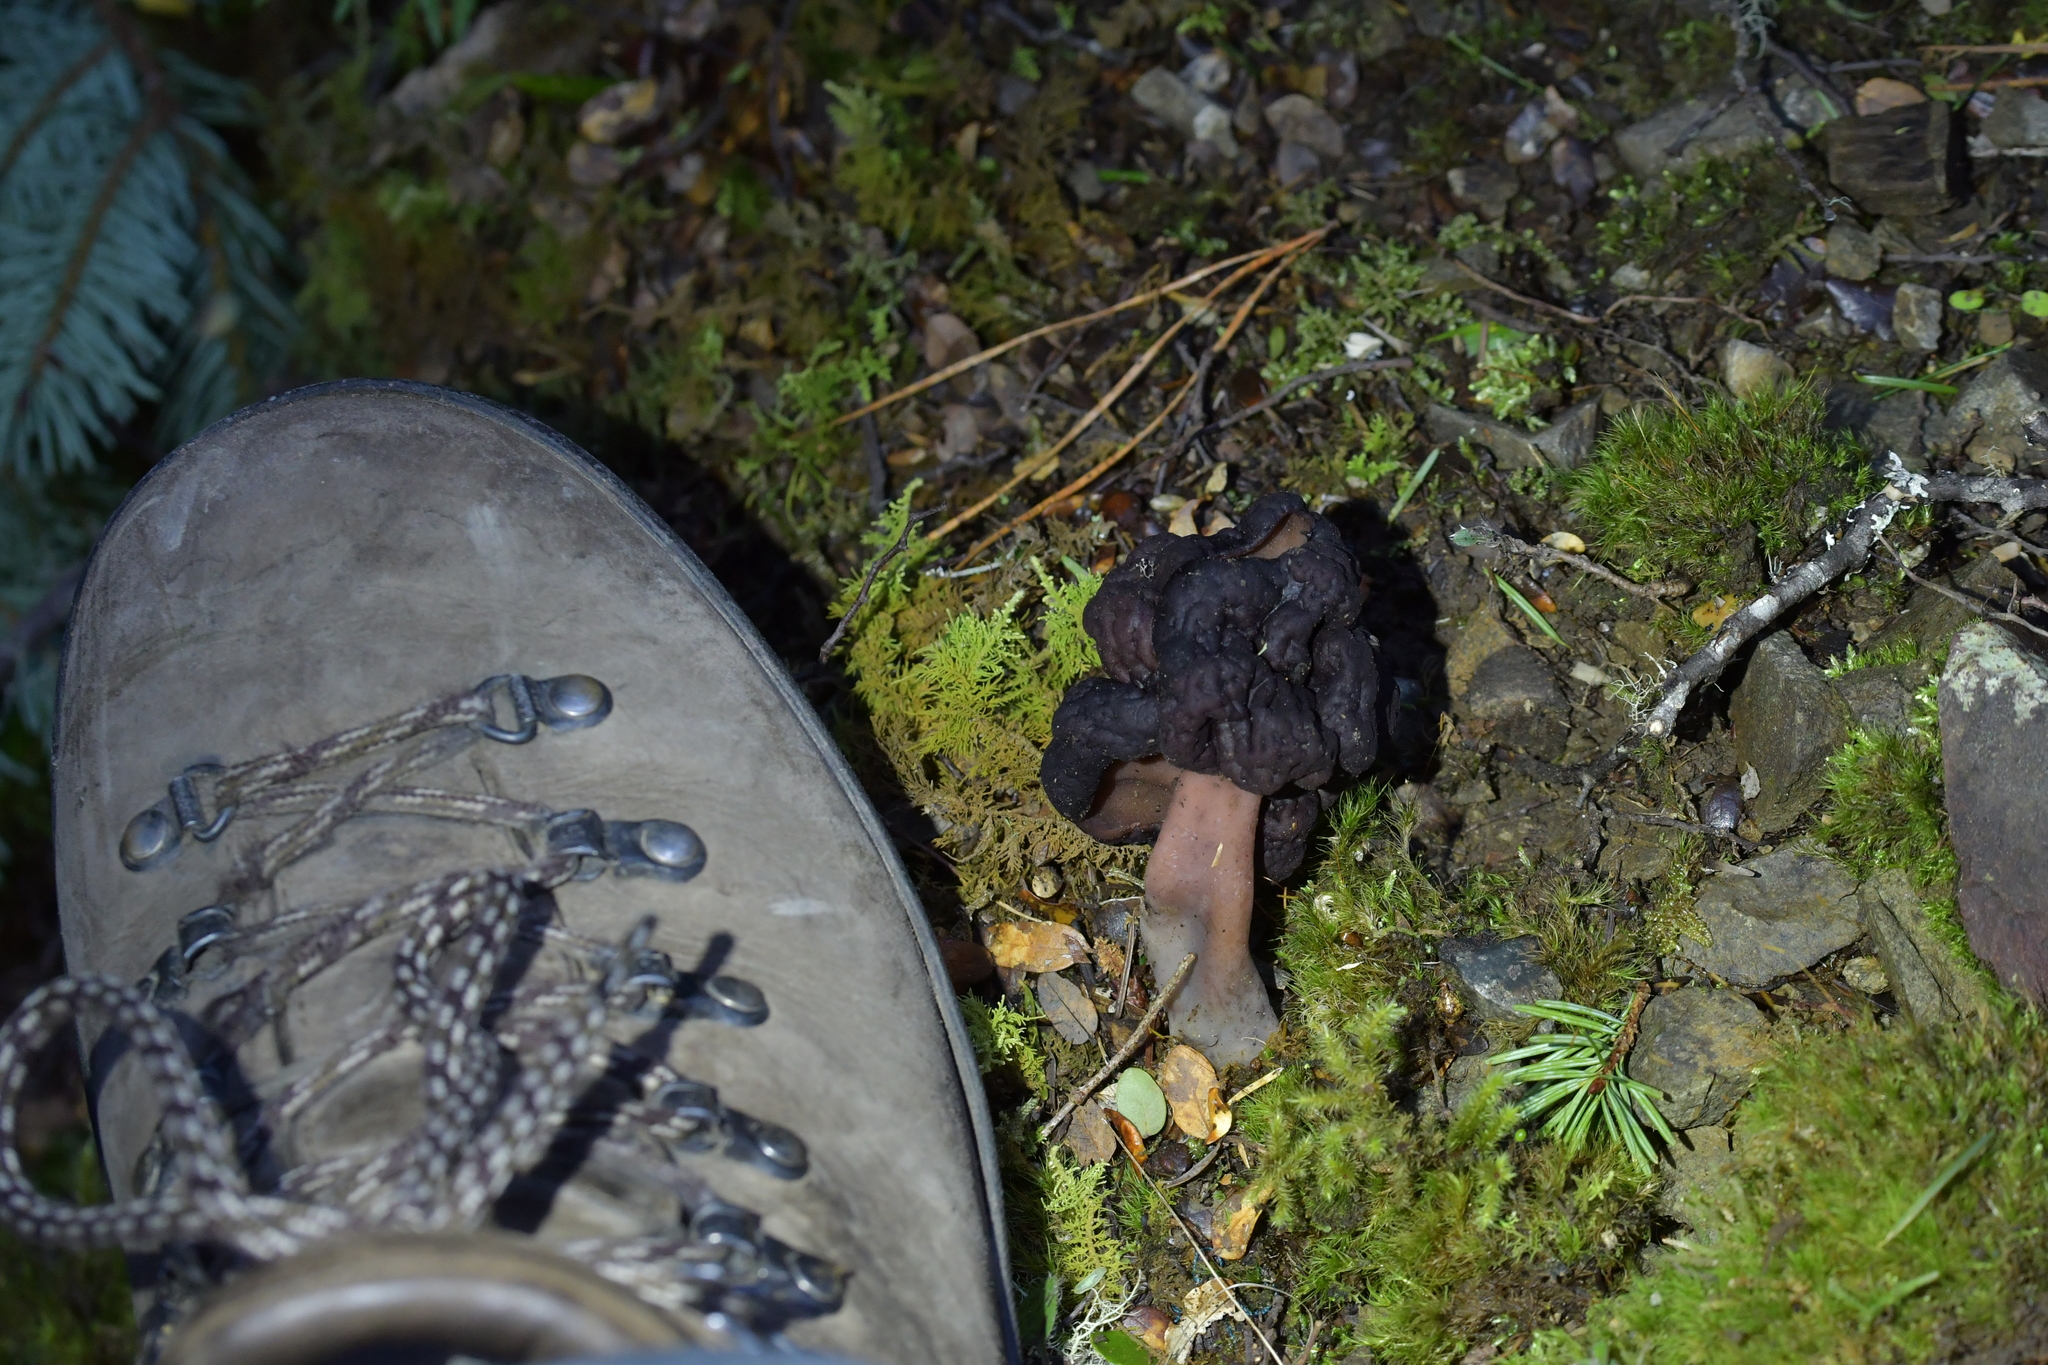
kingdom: Fungi
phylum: Ascomycota
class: Pezizomycetes
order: Pezizales
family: Discinaceae
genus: Gyromitra
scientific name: Gyromitra tasmanica
